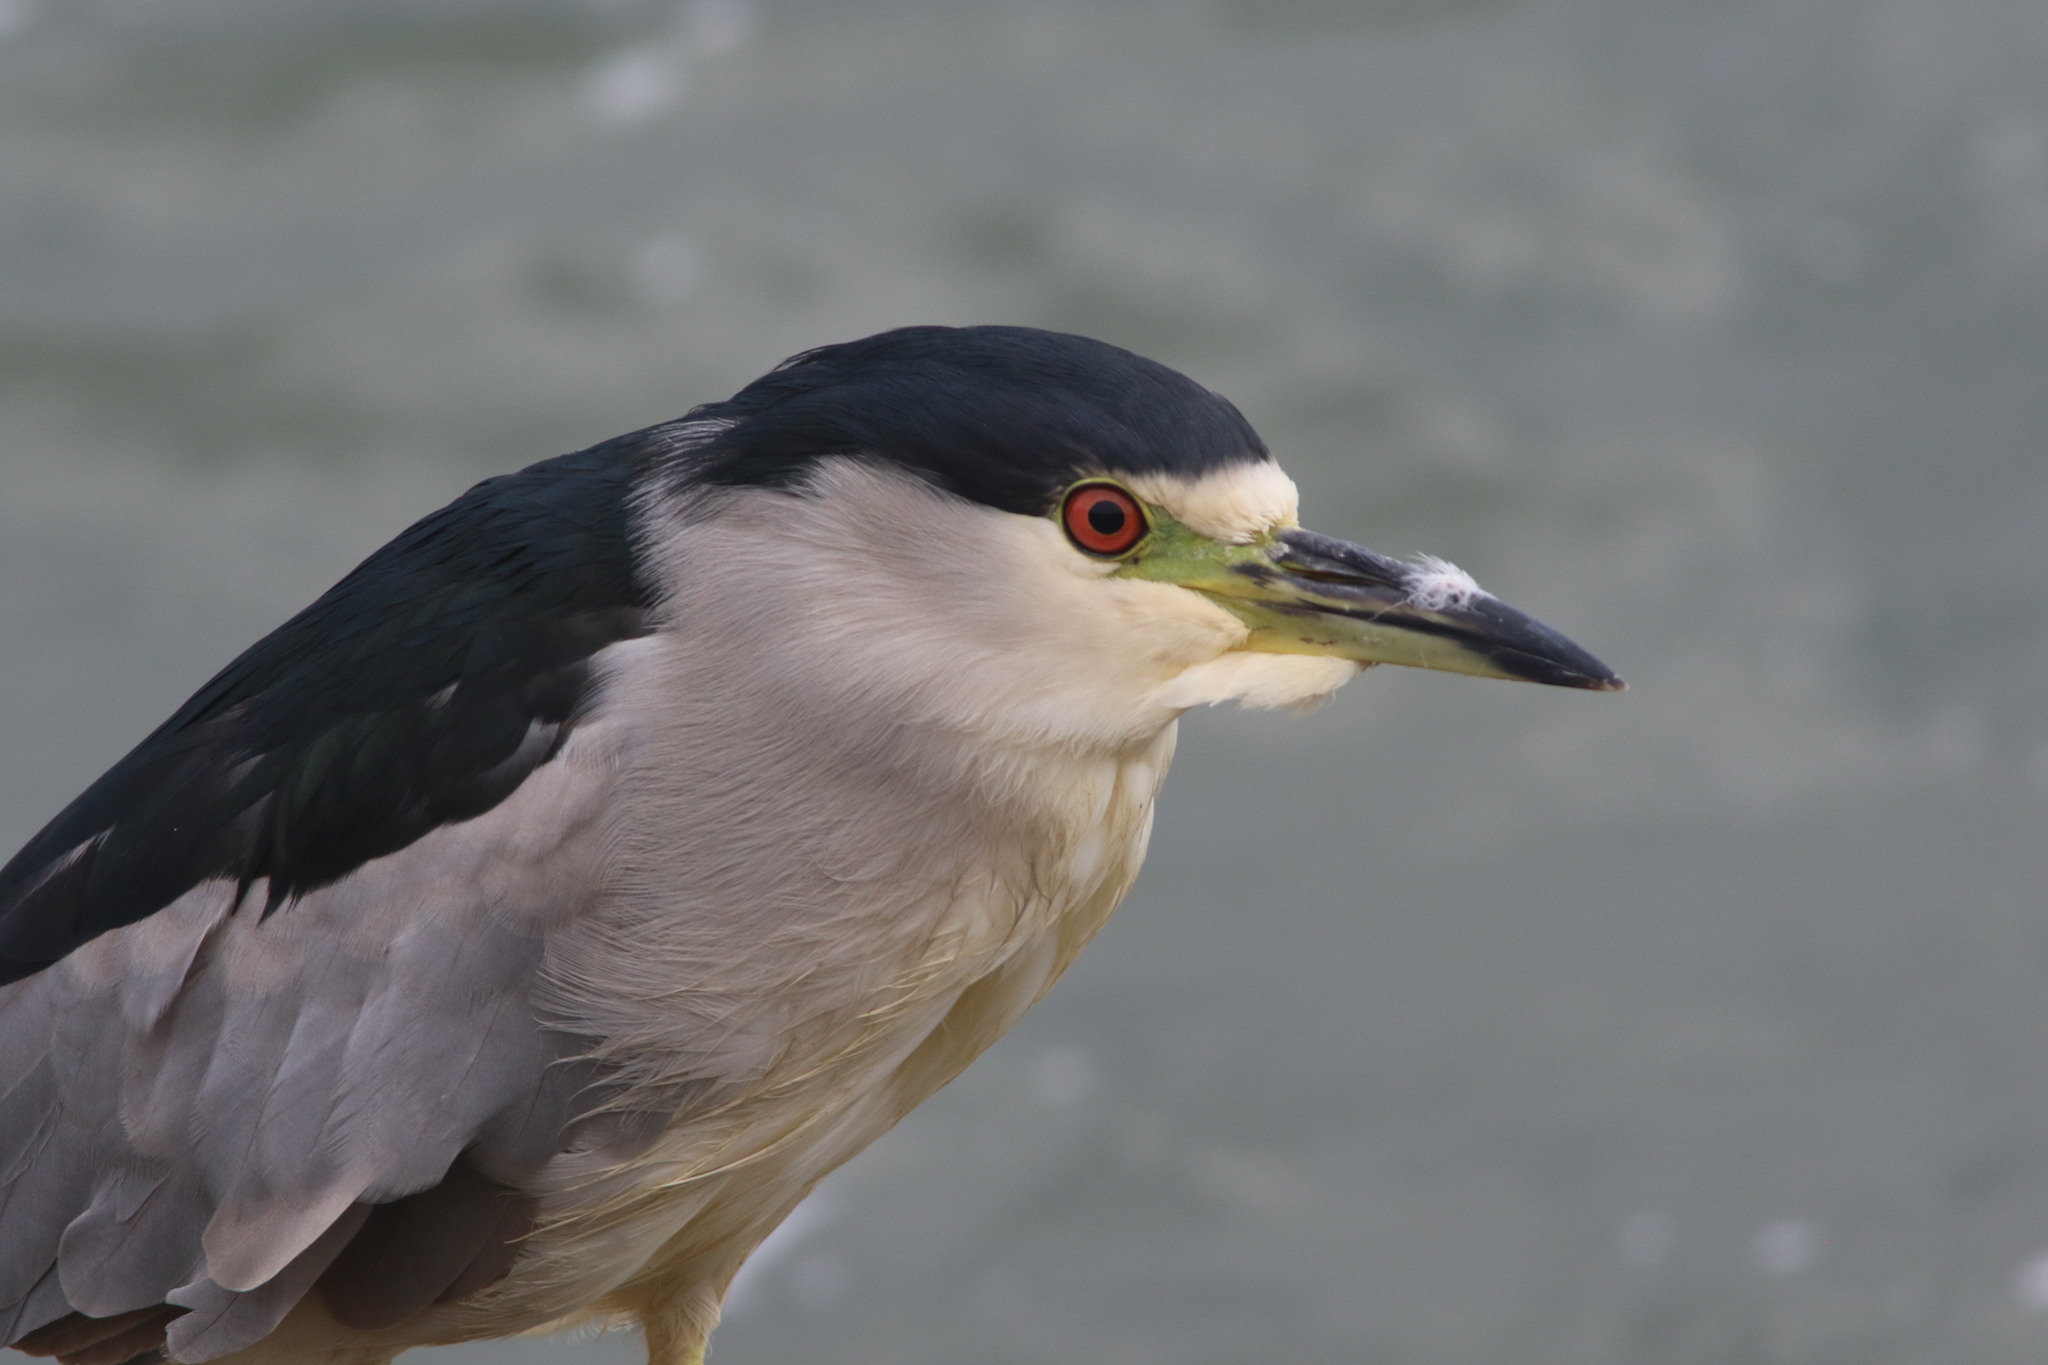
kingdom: Animalia
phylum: Chordata
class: Aves
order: Pelecaniformes
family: Ardeidae
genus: Nycticorax
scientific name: Nycticorax nycticorax
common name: Black-crowned night heron
